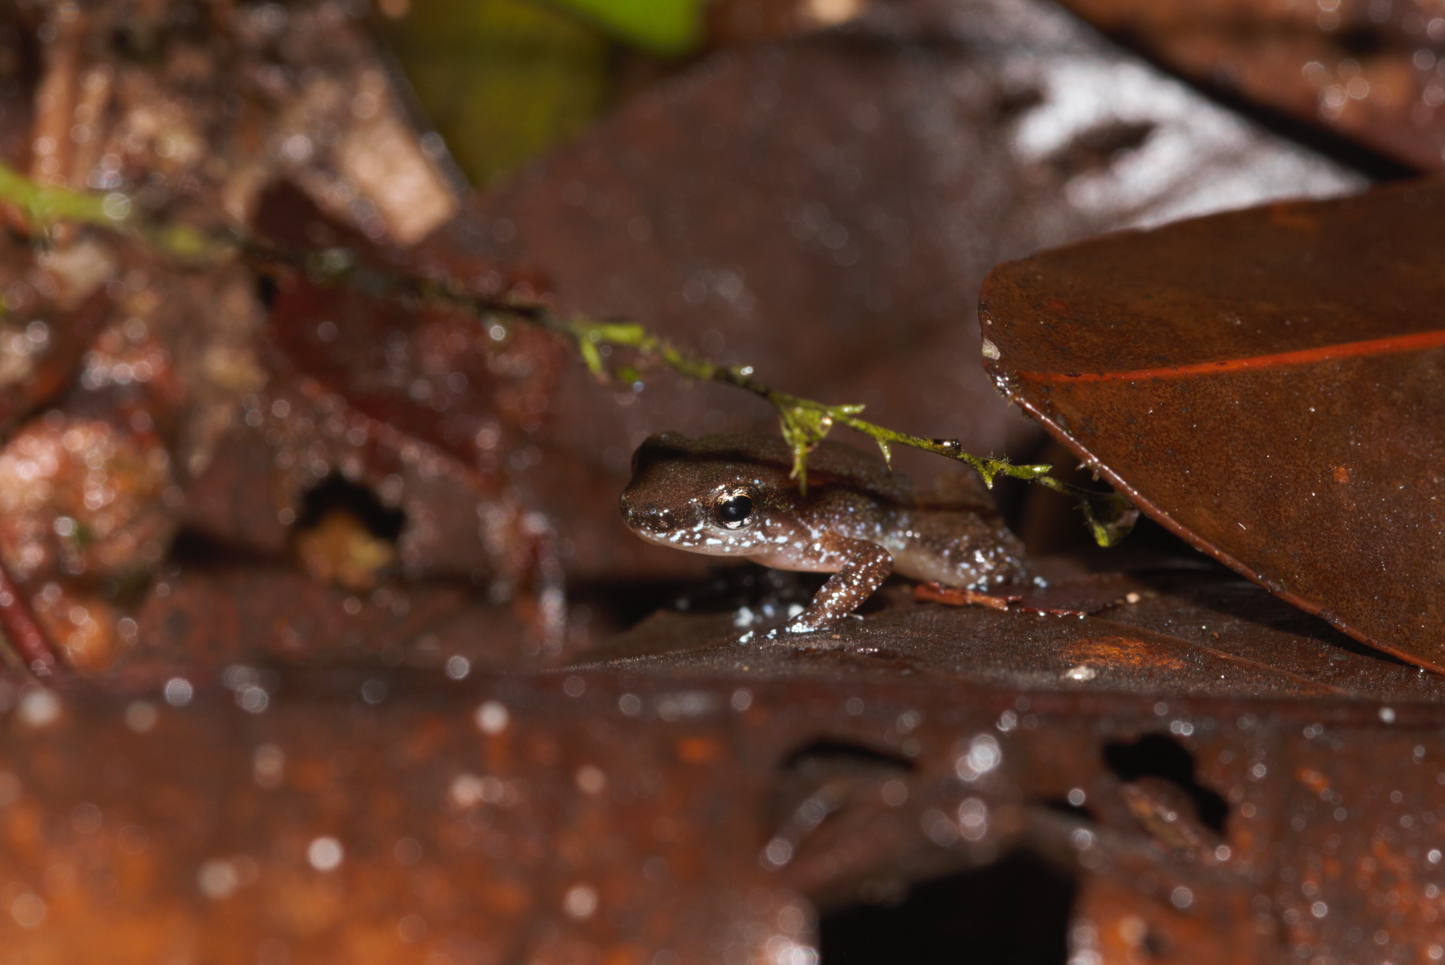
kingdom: Animalia
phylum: Chordata
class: Amphibia
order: Anura
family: Aromobatidae
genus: Anomaloglossus
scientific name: Anomaloglossus baeobatrachus
